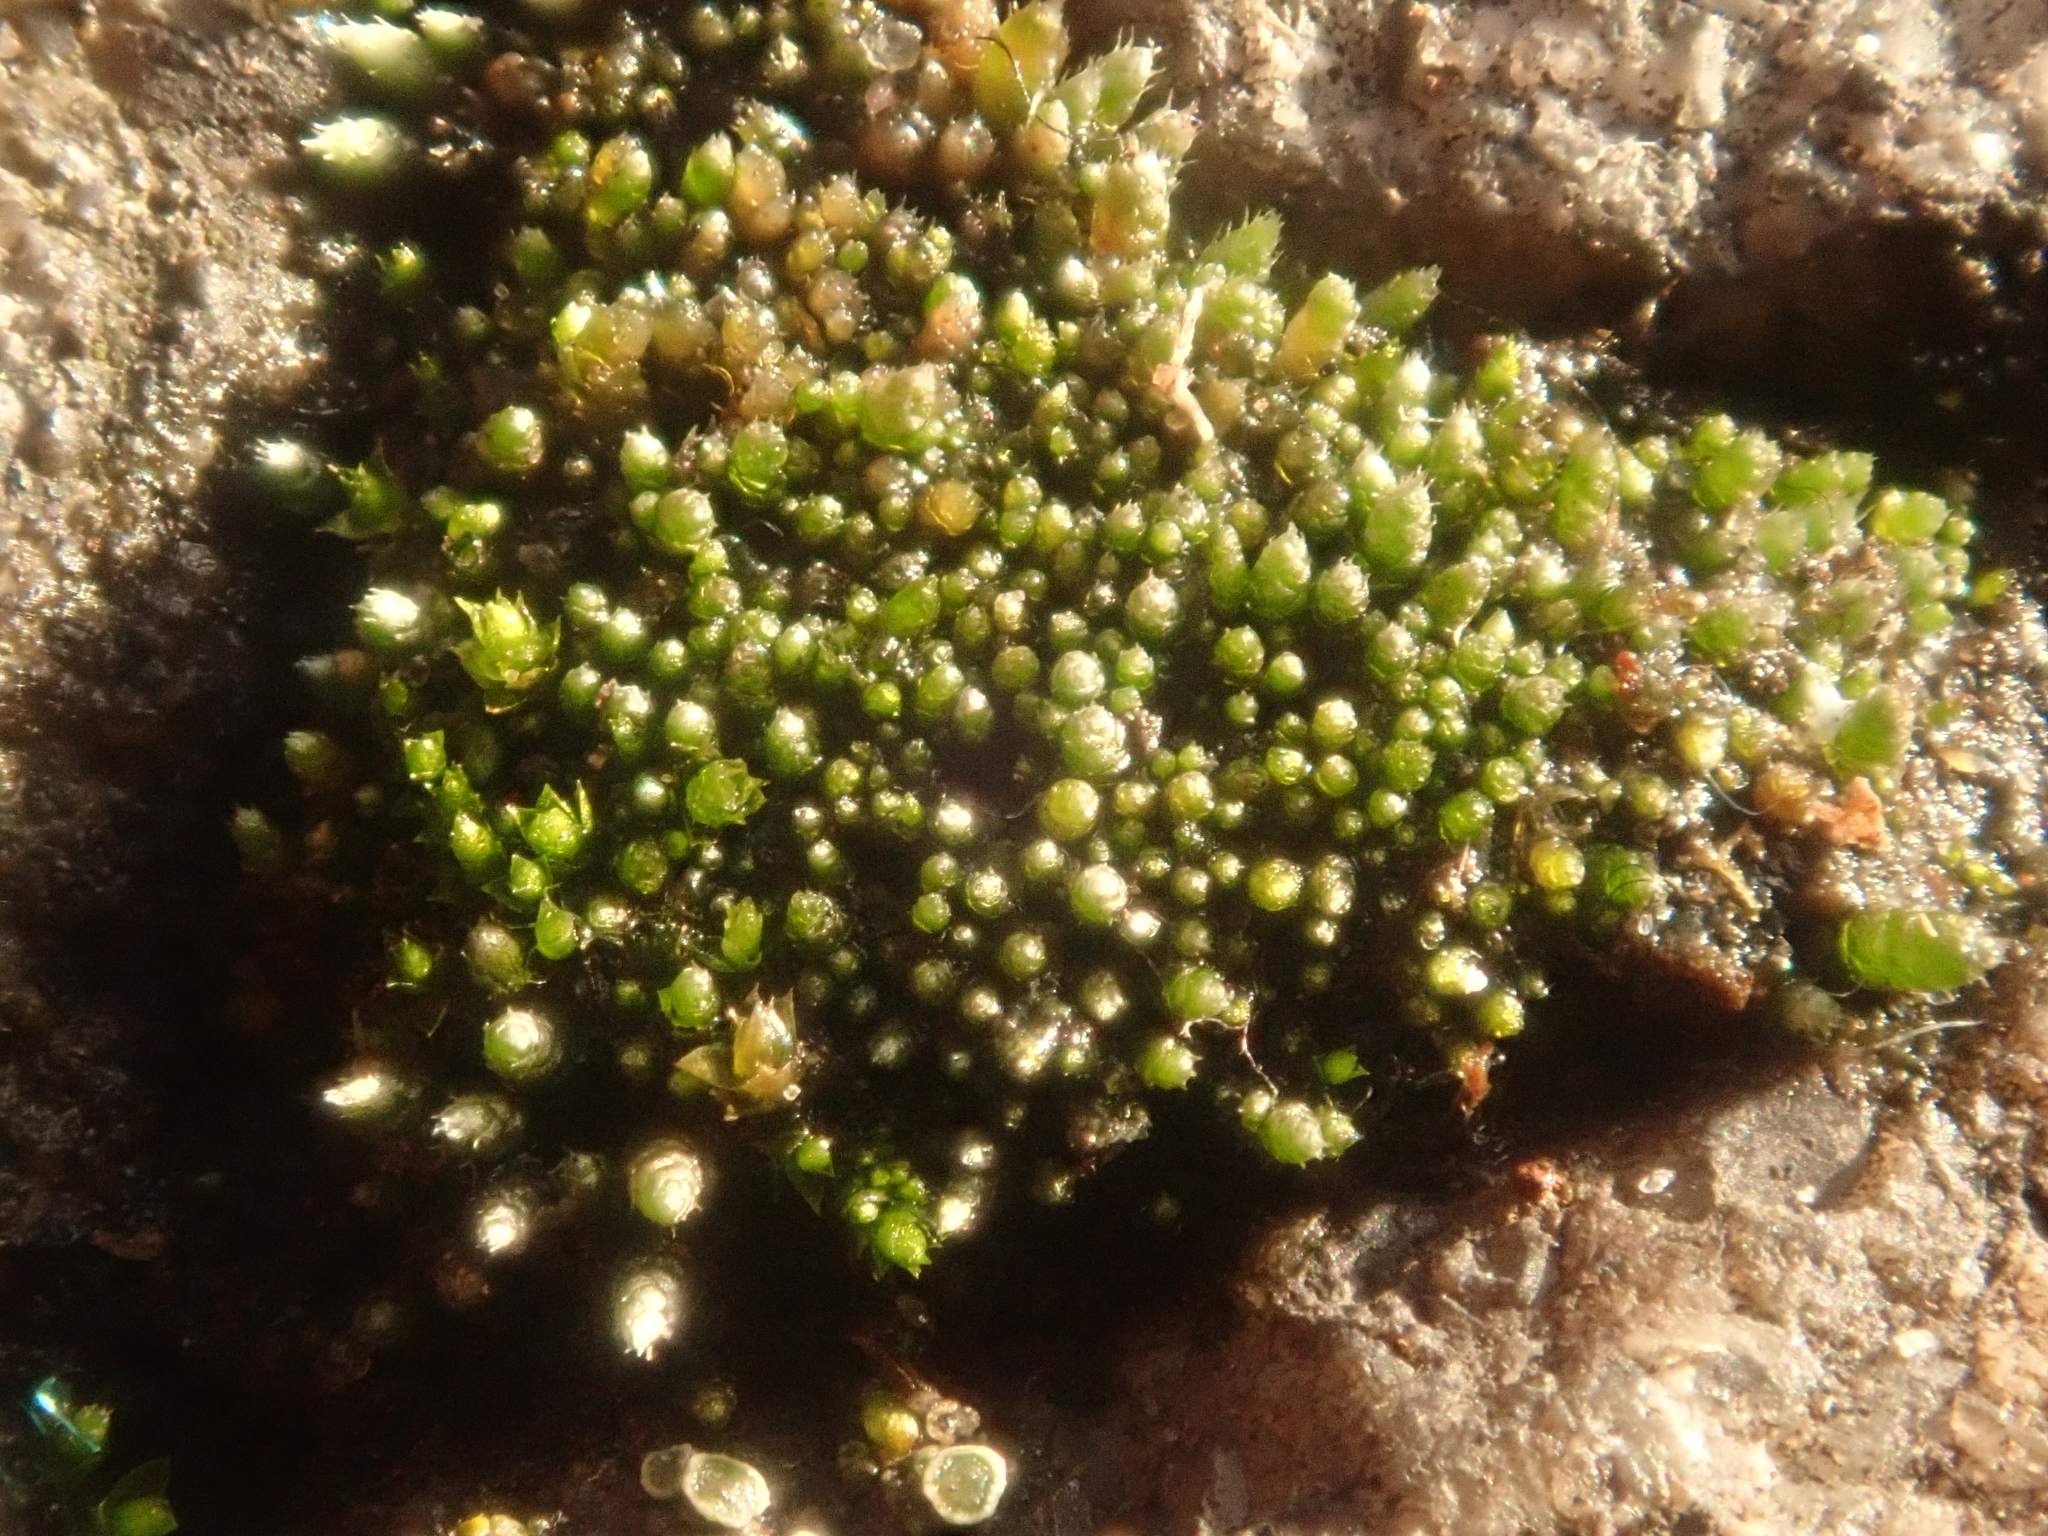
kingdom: Plantae
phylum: Bryophyta
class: Bryopsida
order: Bryales
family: Bryaceae
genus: Bryum
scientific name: Bryum argenteum
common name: Silver-moss
